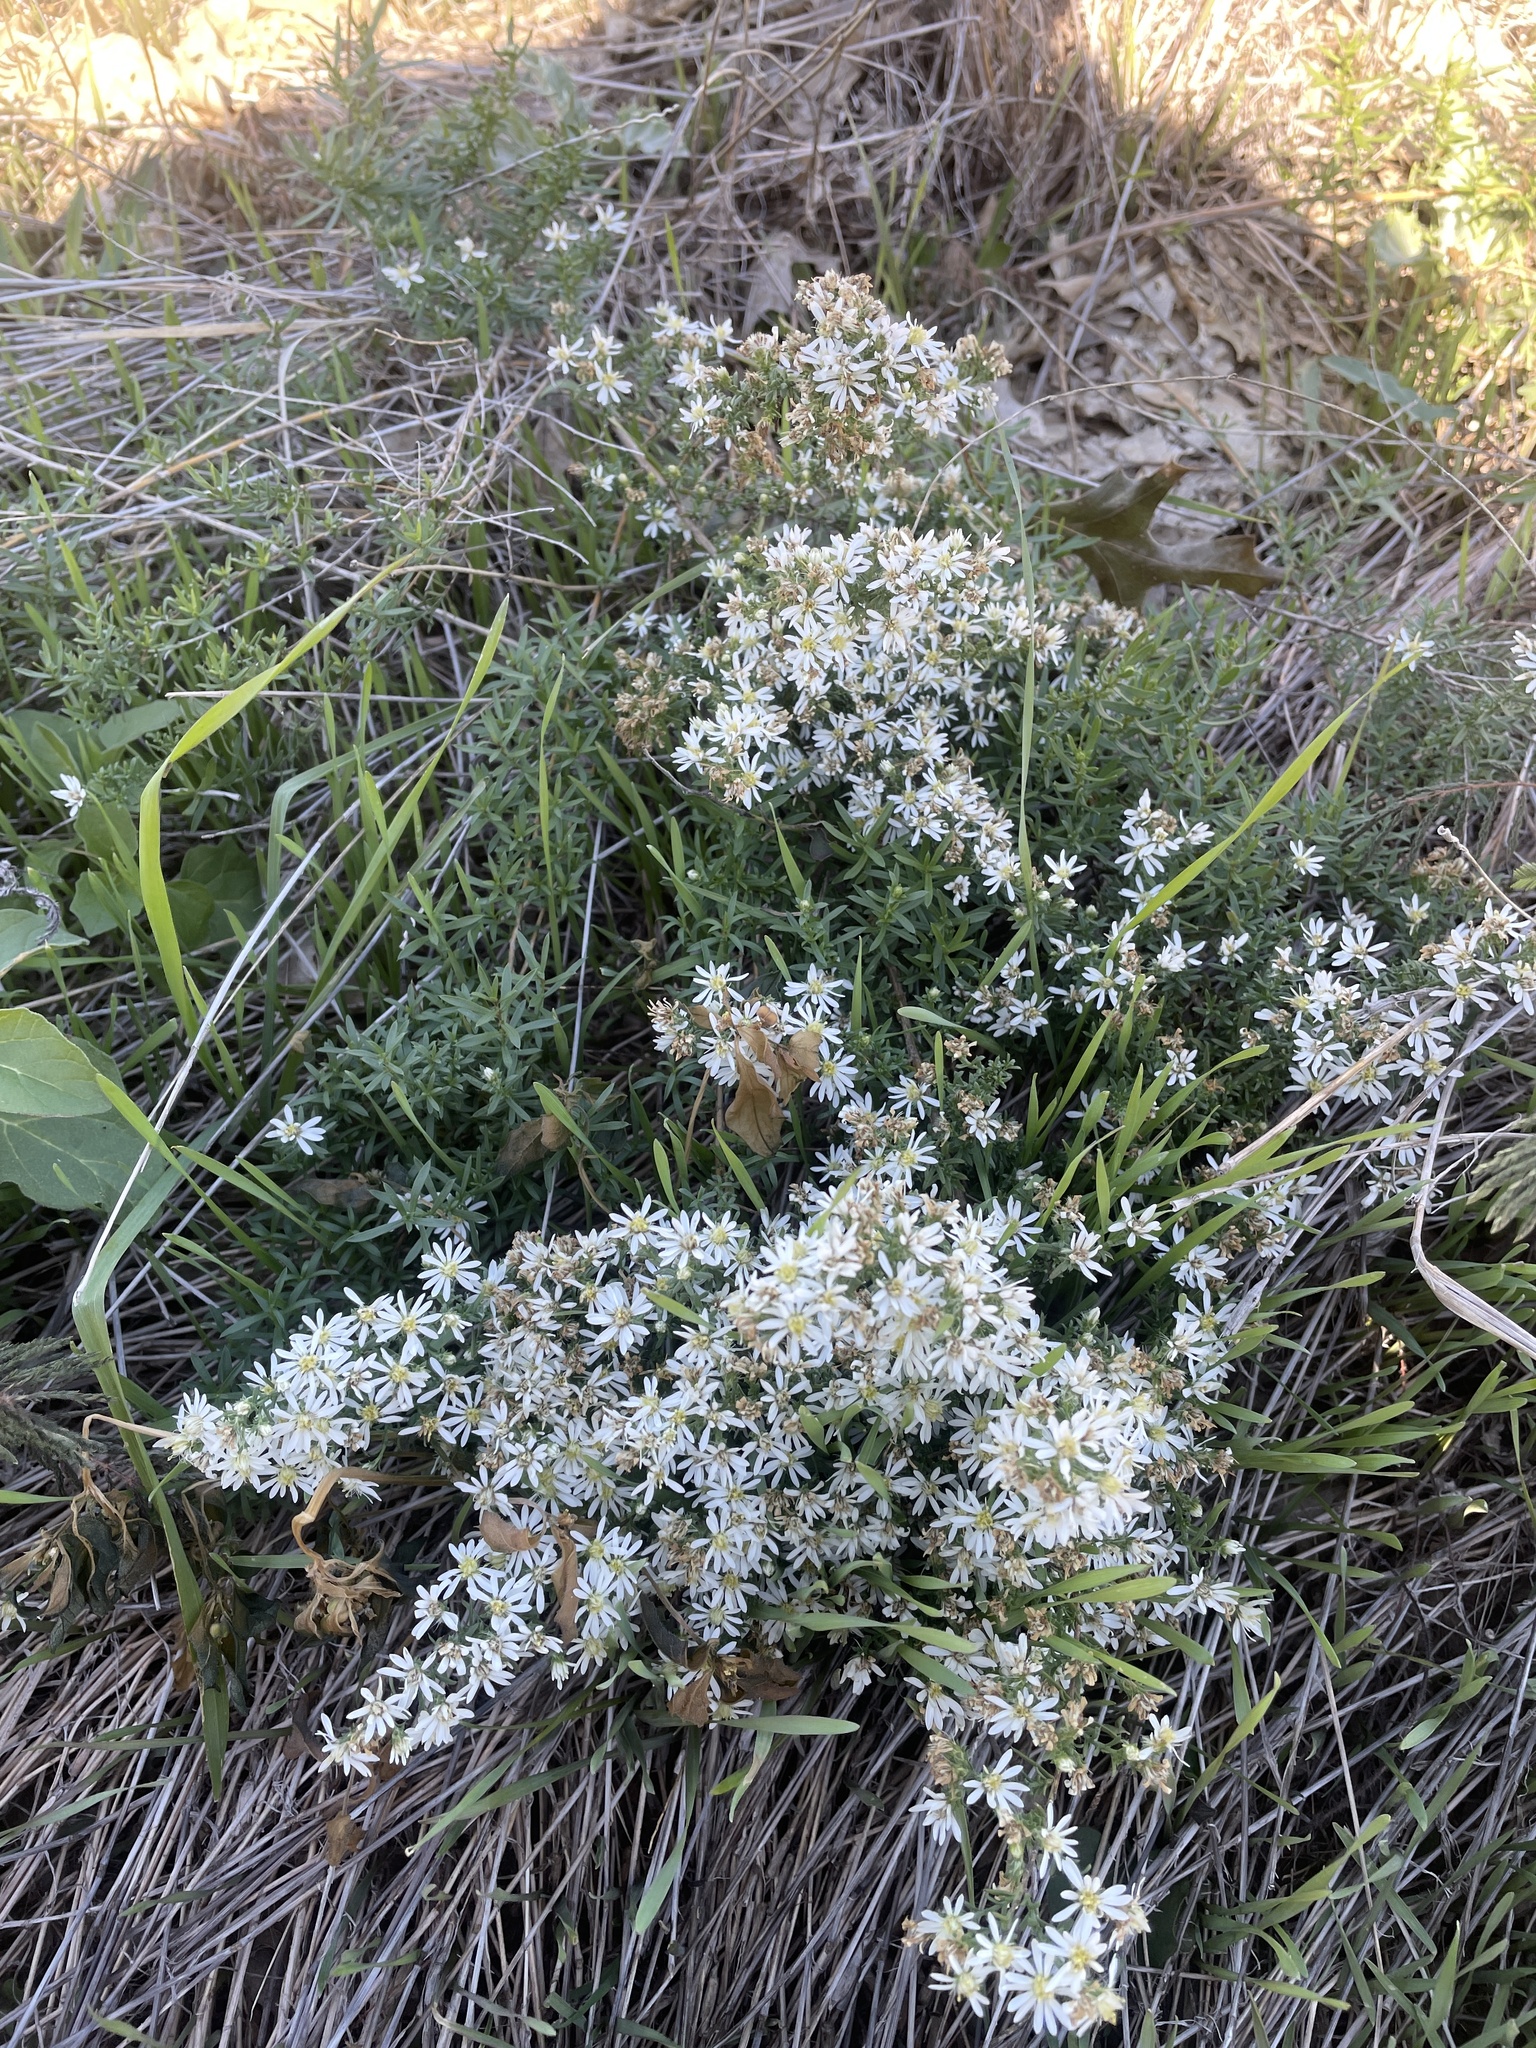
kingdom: Plantae
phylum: Tracheophyta
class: Magnoliopsida
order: Asterales
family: Asteraceae
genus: Symphyotrichum
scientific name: Symphyotrichum ericoides
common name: Heath aster
